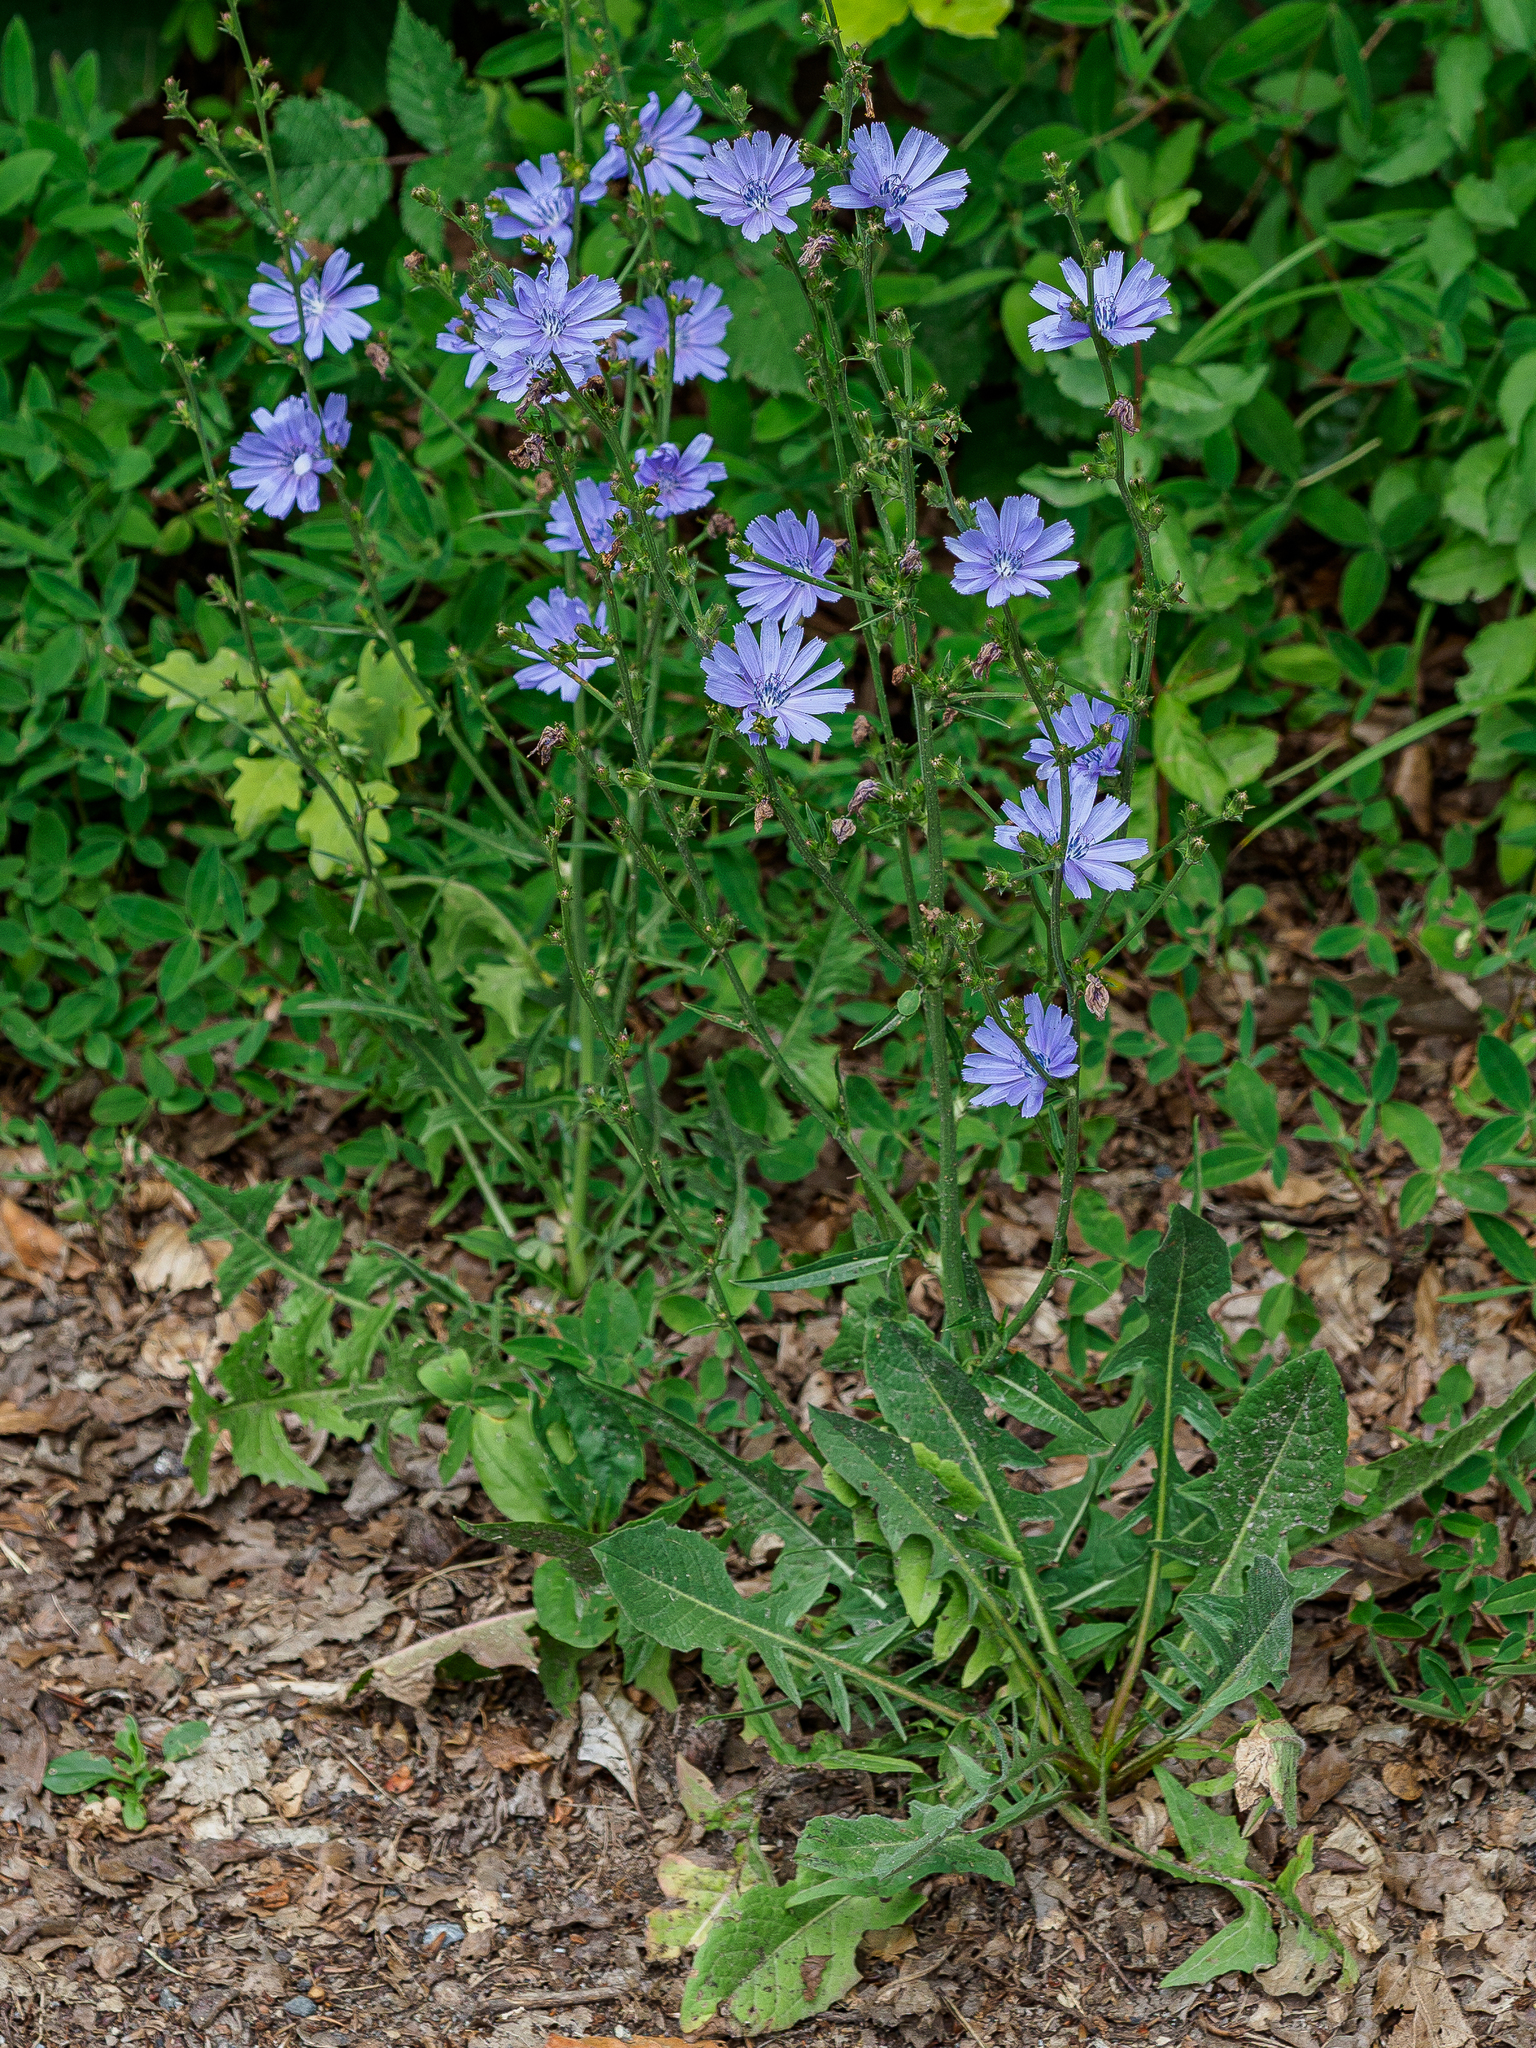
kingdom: Plantae
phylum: Tracheophyta
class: Magnoliopsida
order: Asterales
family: Asteraceae
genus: Cichorium
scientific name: Cichorium intybus
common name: Chicory
